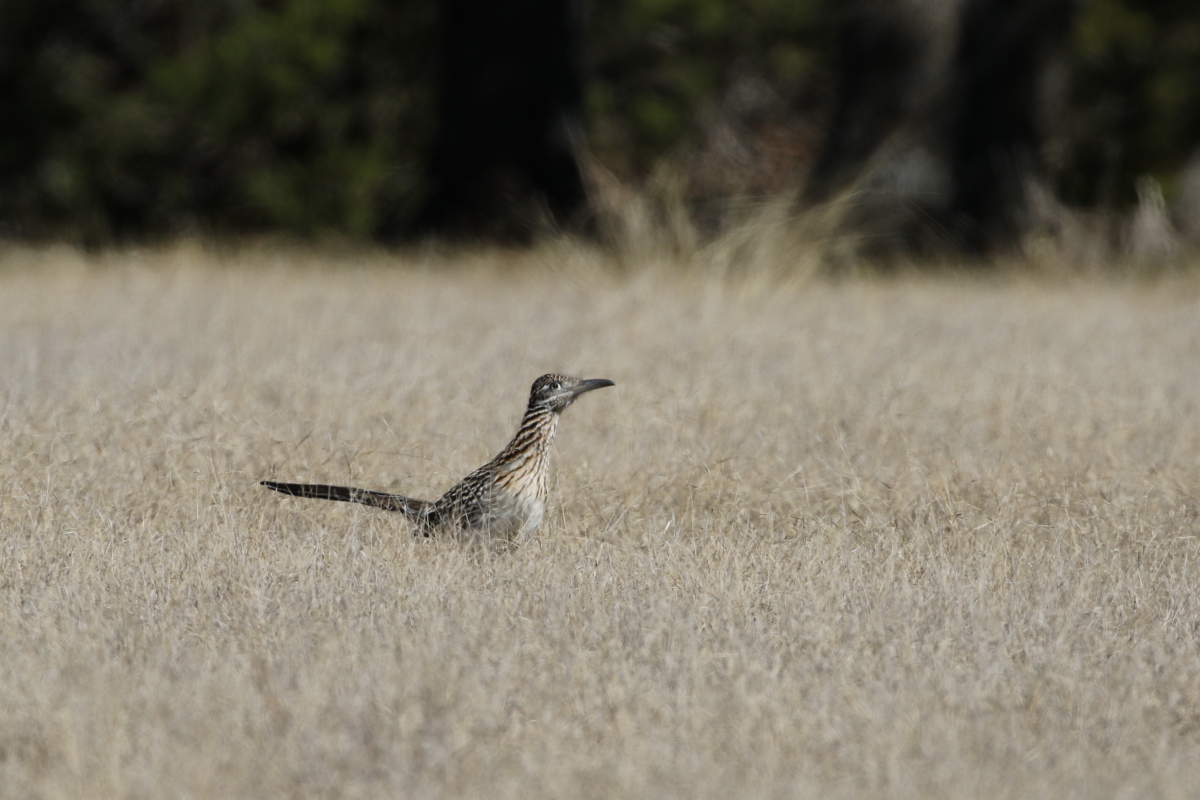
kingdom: Animalia
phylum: Chordata
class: Aves
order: Cuculiformes
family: Cuculidae
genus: Geococcyx
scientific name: Geococcyx californianus
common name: Greater roadrunner
